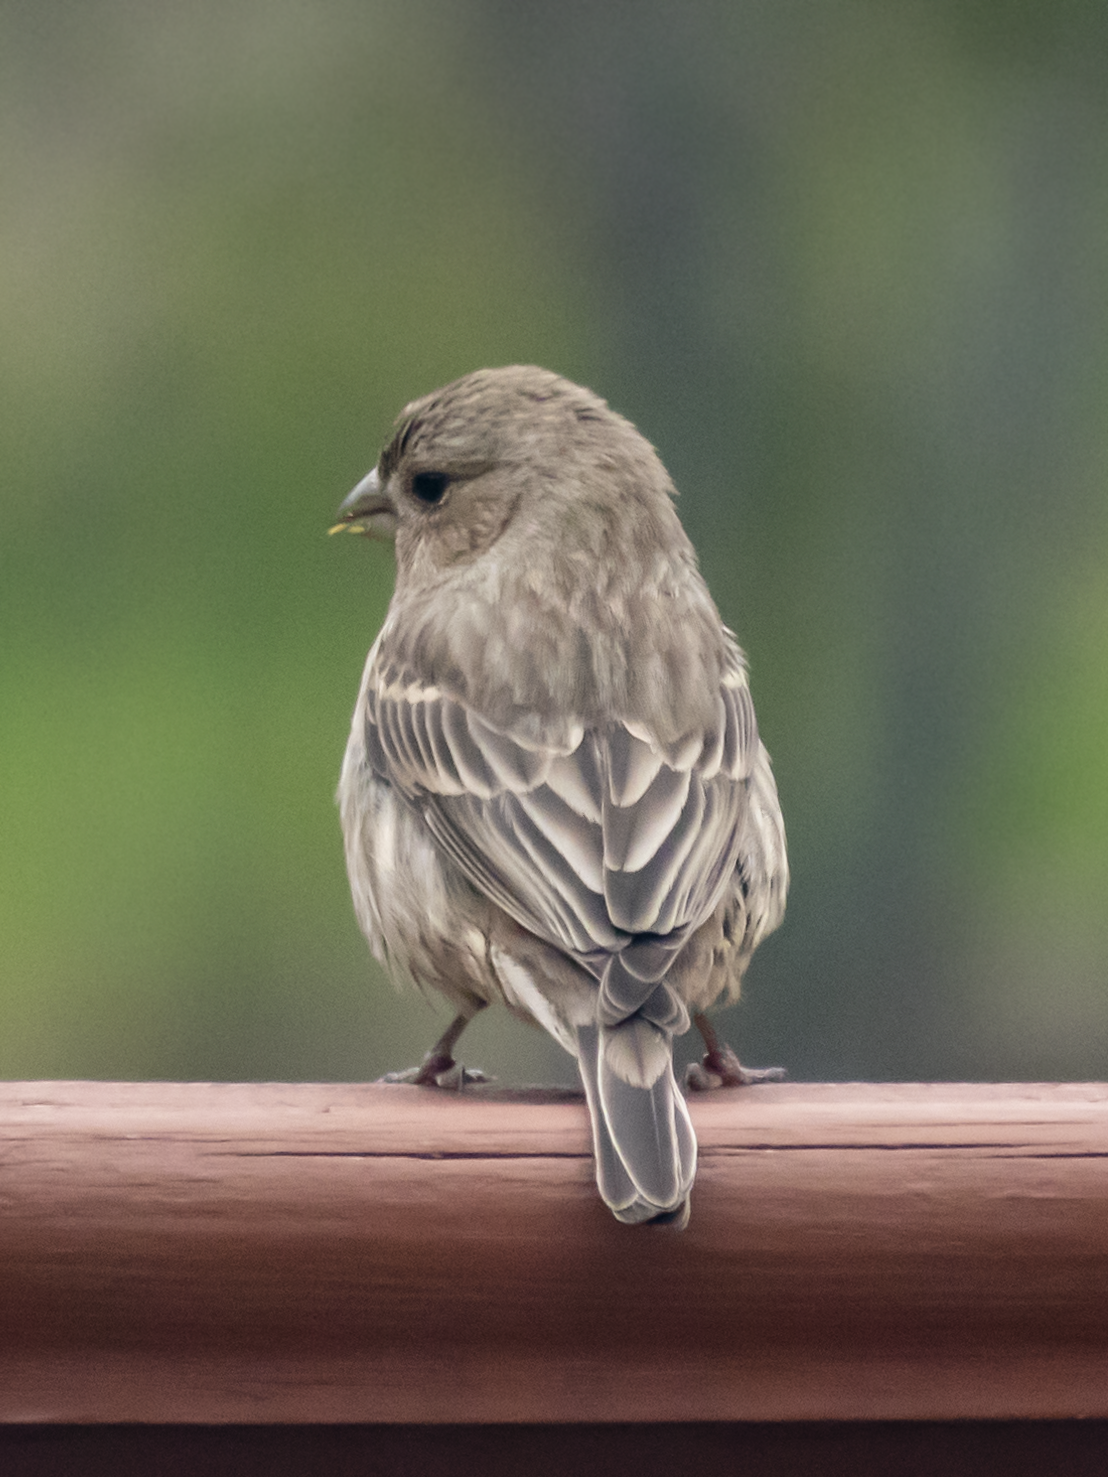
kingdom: Animalia
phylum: Chordata
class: Aves
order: Passeriformes
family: Fringillidae
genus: Haemorhous
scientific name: Haemorhous mexicanus
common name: House finch
